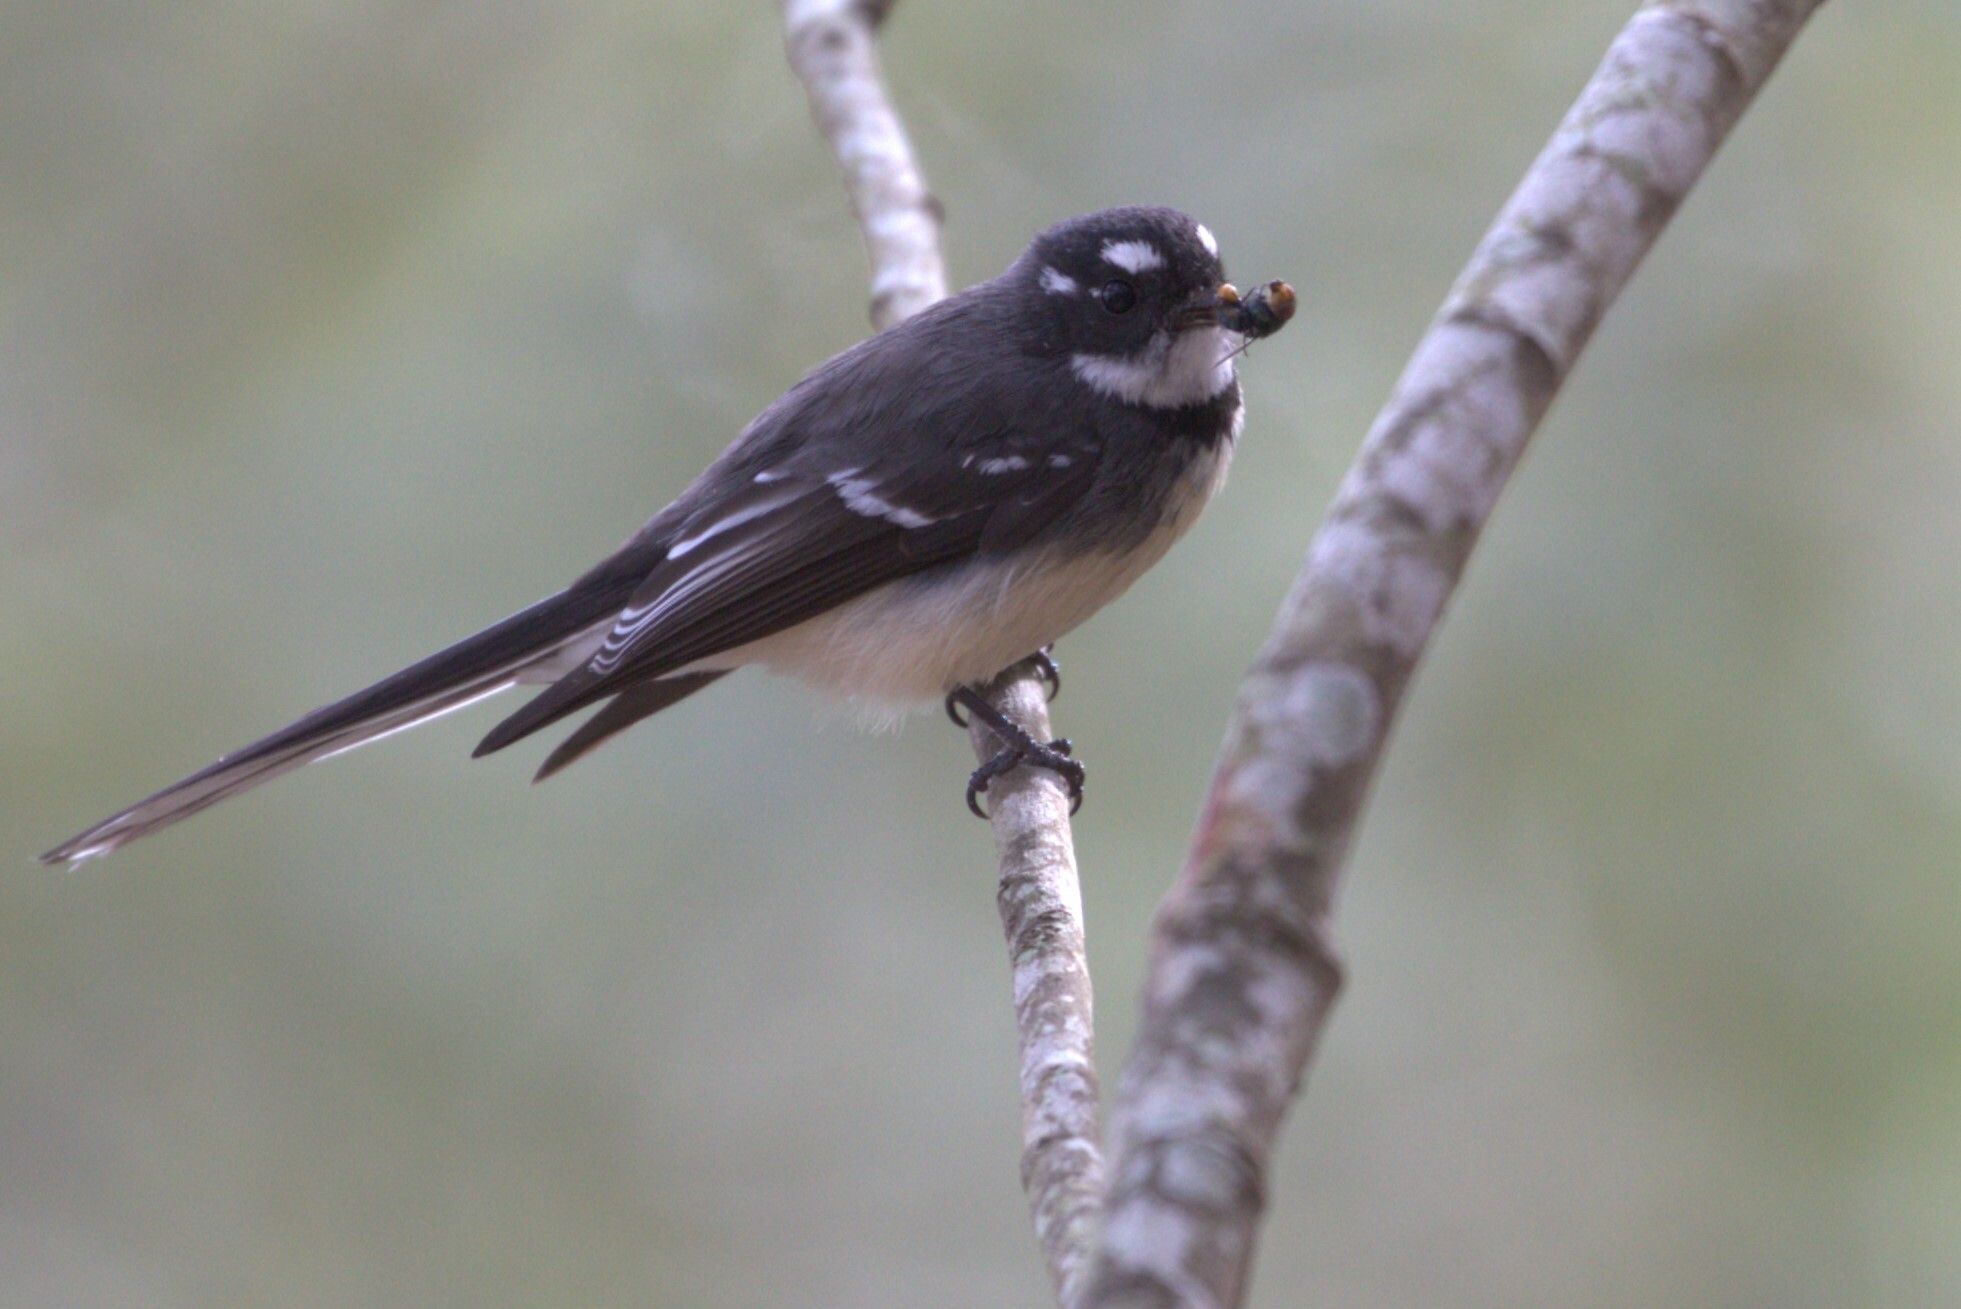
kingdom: Animalia
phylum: Chordata
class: Aves
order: Passeriformes
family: Rhipiduridae
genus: Rhipidura
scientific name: Rhipidura albiscapa
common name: Grey fantail
